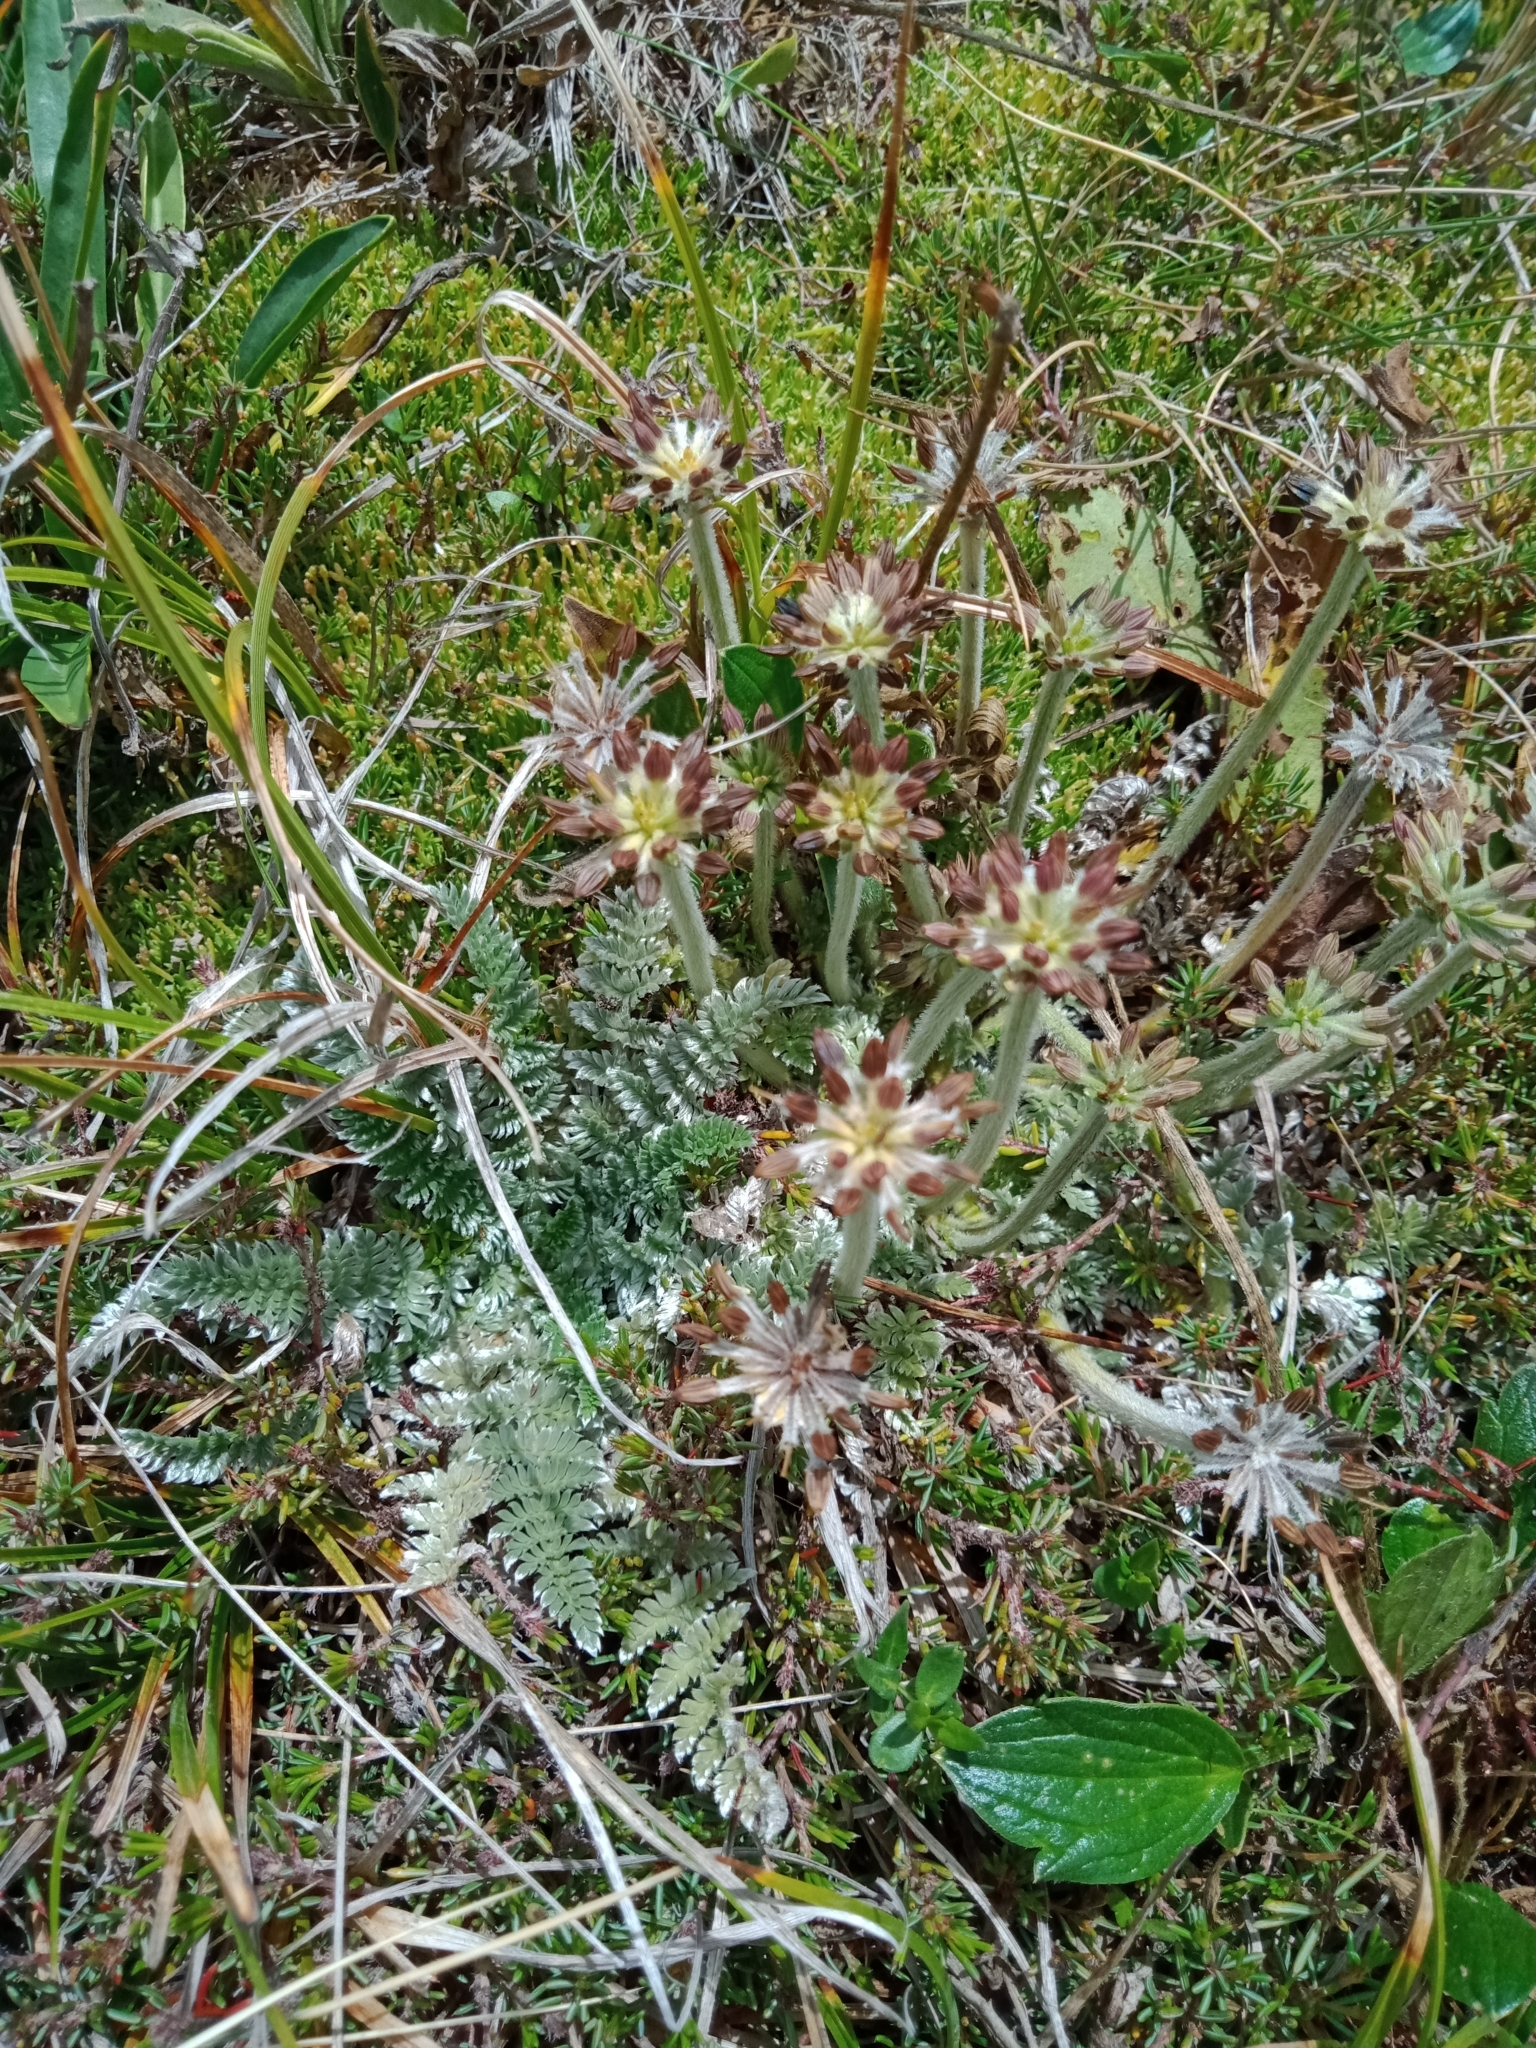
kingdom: Plantae
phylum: Tracheophyta
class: Magnoliopsida
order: Apiales
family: Apiaceae
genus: Chaerophyllum
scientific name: Chaerophyllum argenteum
